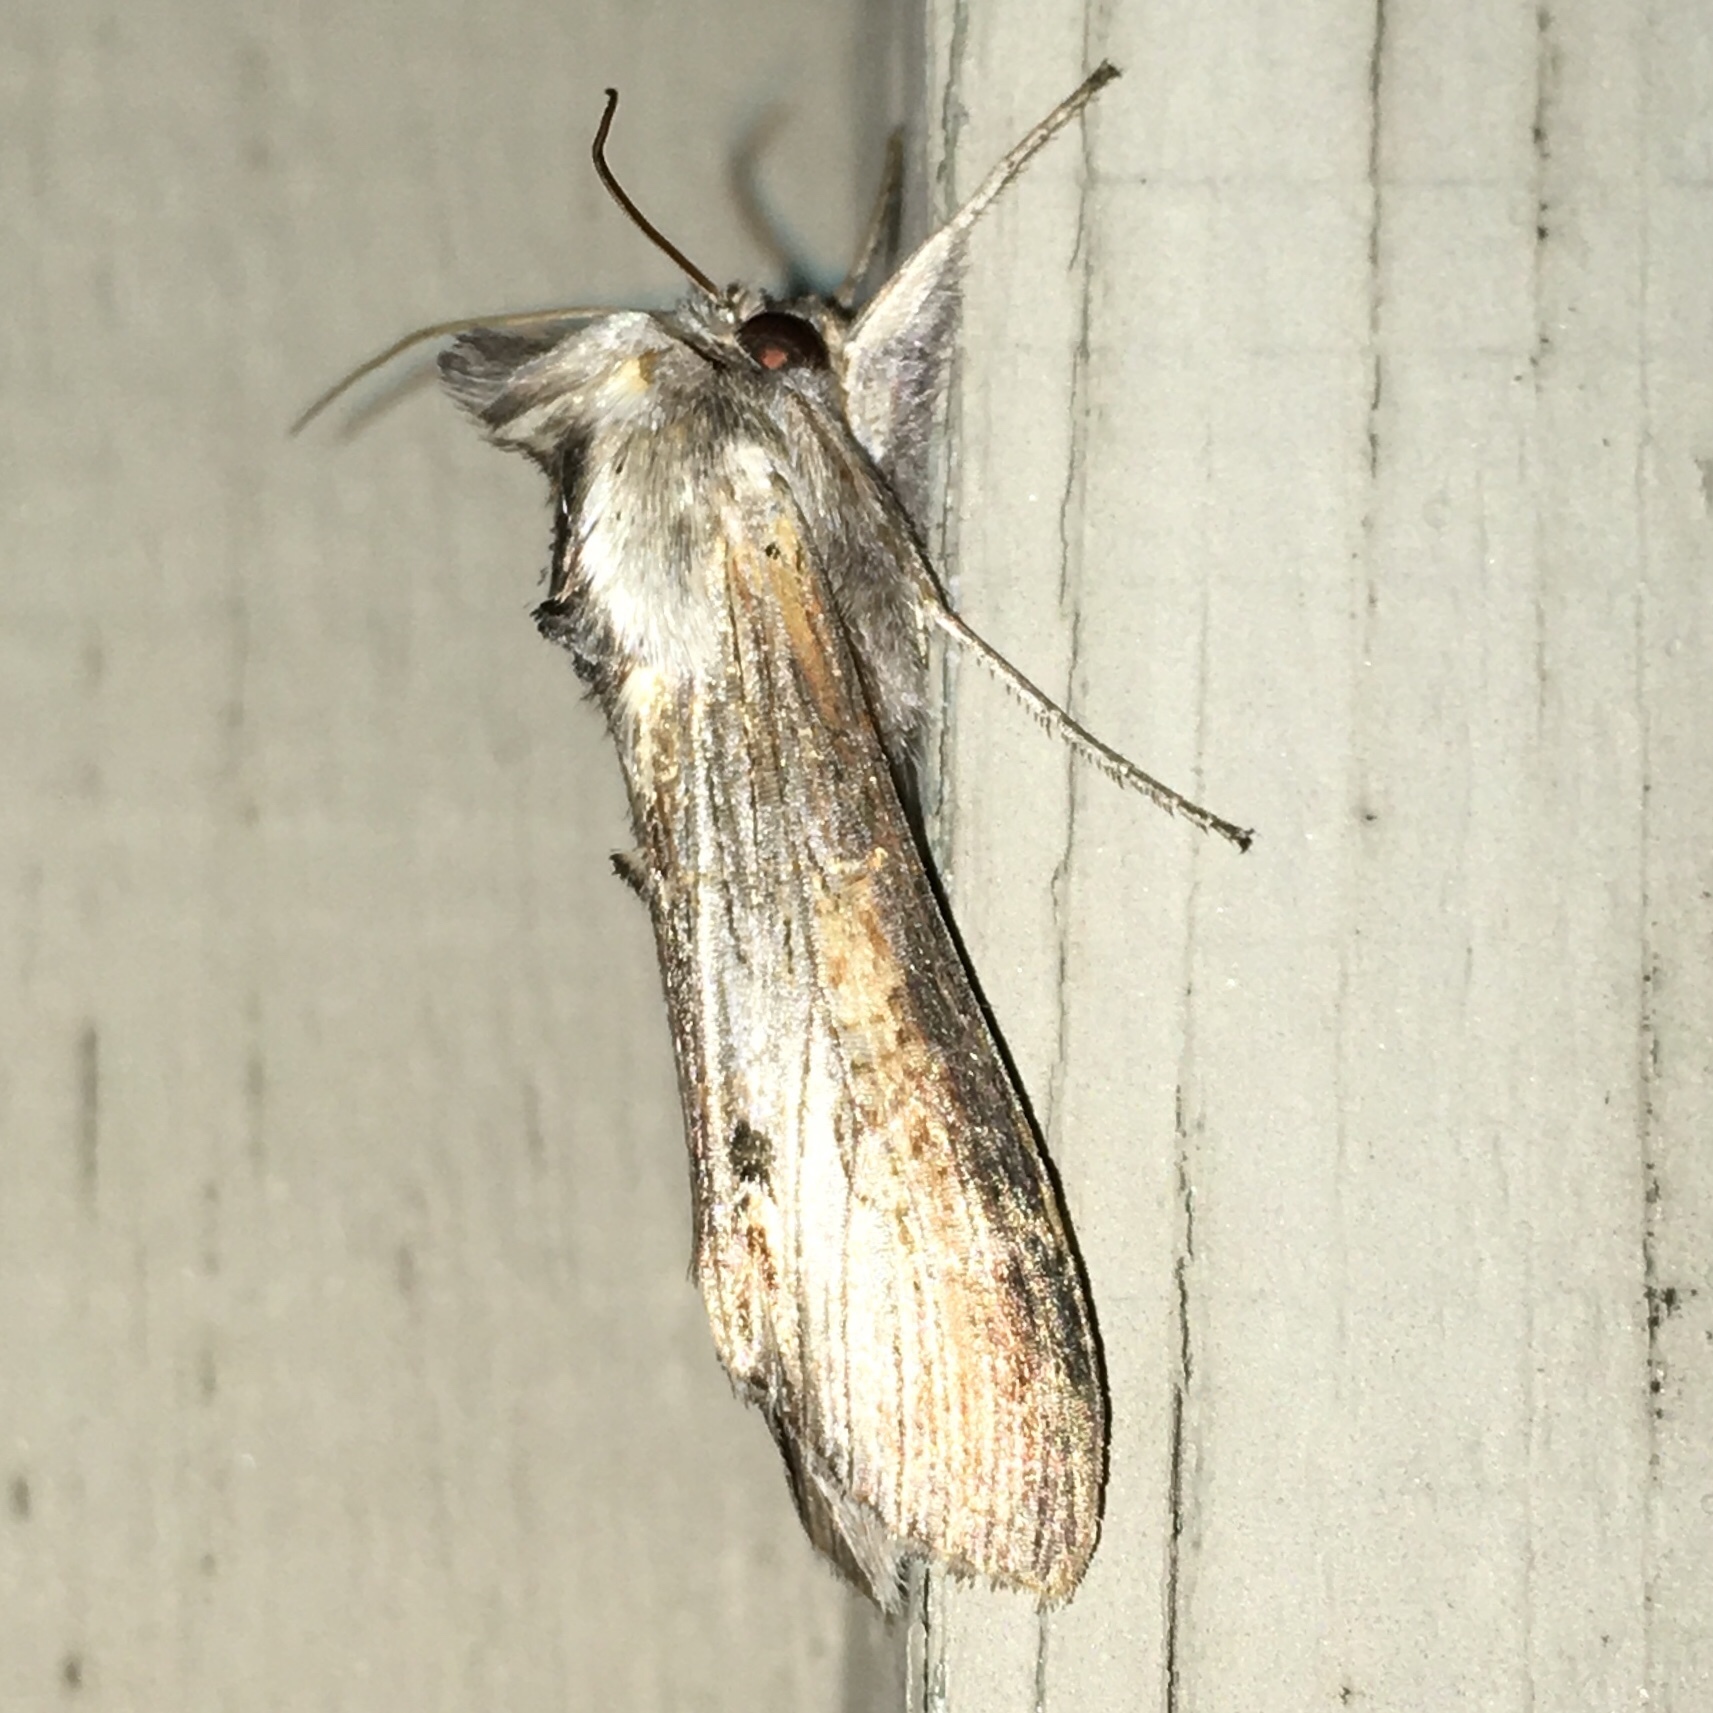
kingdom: Animalia
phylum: Arthropoda
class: Insecta
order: Lepidoptera
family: Noctuidae
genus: Cucullia
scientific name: Cucullia asteroides
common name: Asteroid moth
